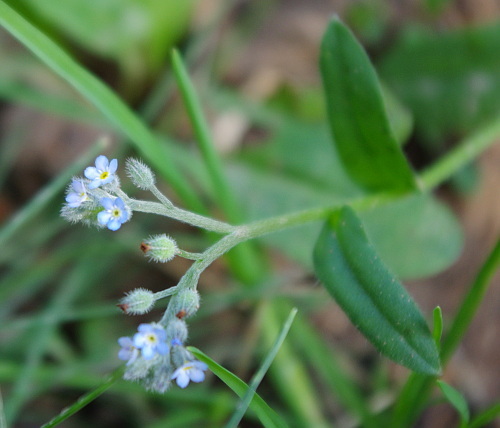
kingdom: Plantae
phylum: Tracheophyta
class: Magnoliopsida
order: Boraginales
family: Boraginaceae
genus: Myosotis
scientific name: Myosotis arvensis
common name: Field forget-me-not
